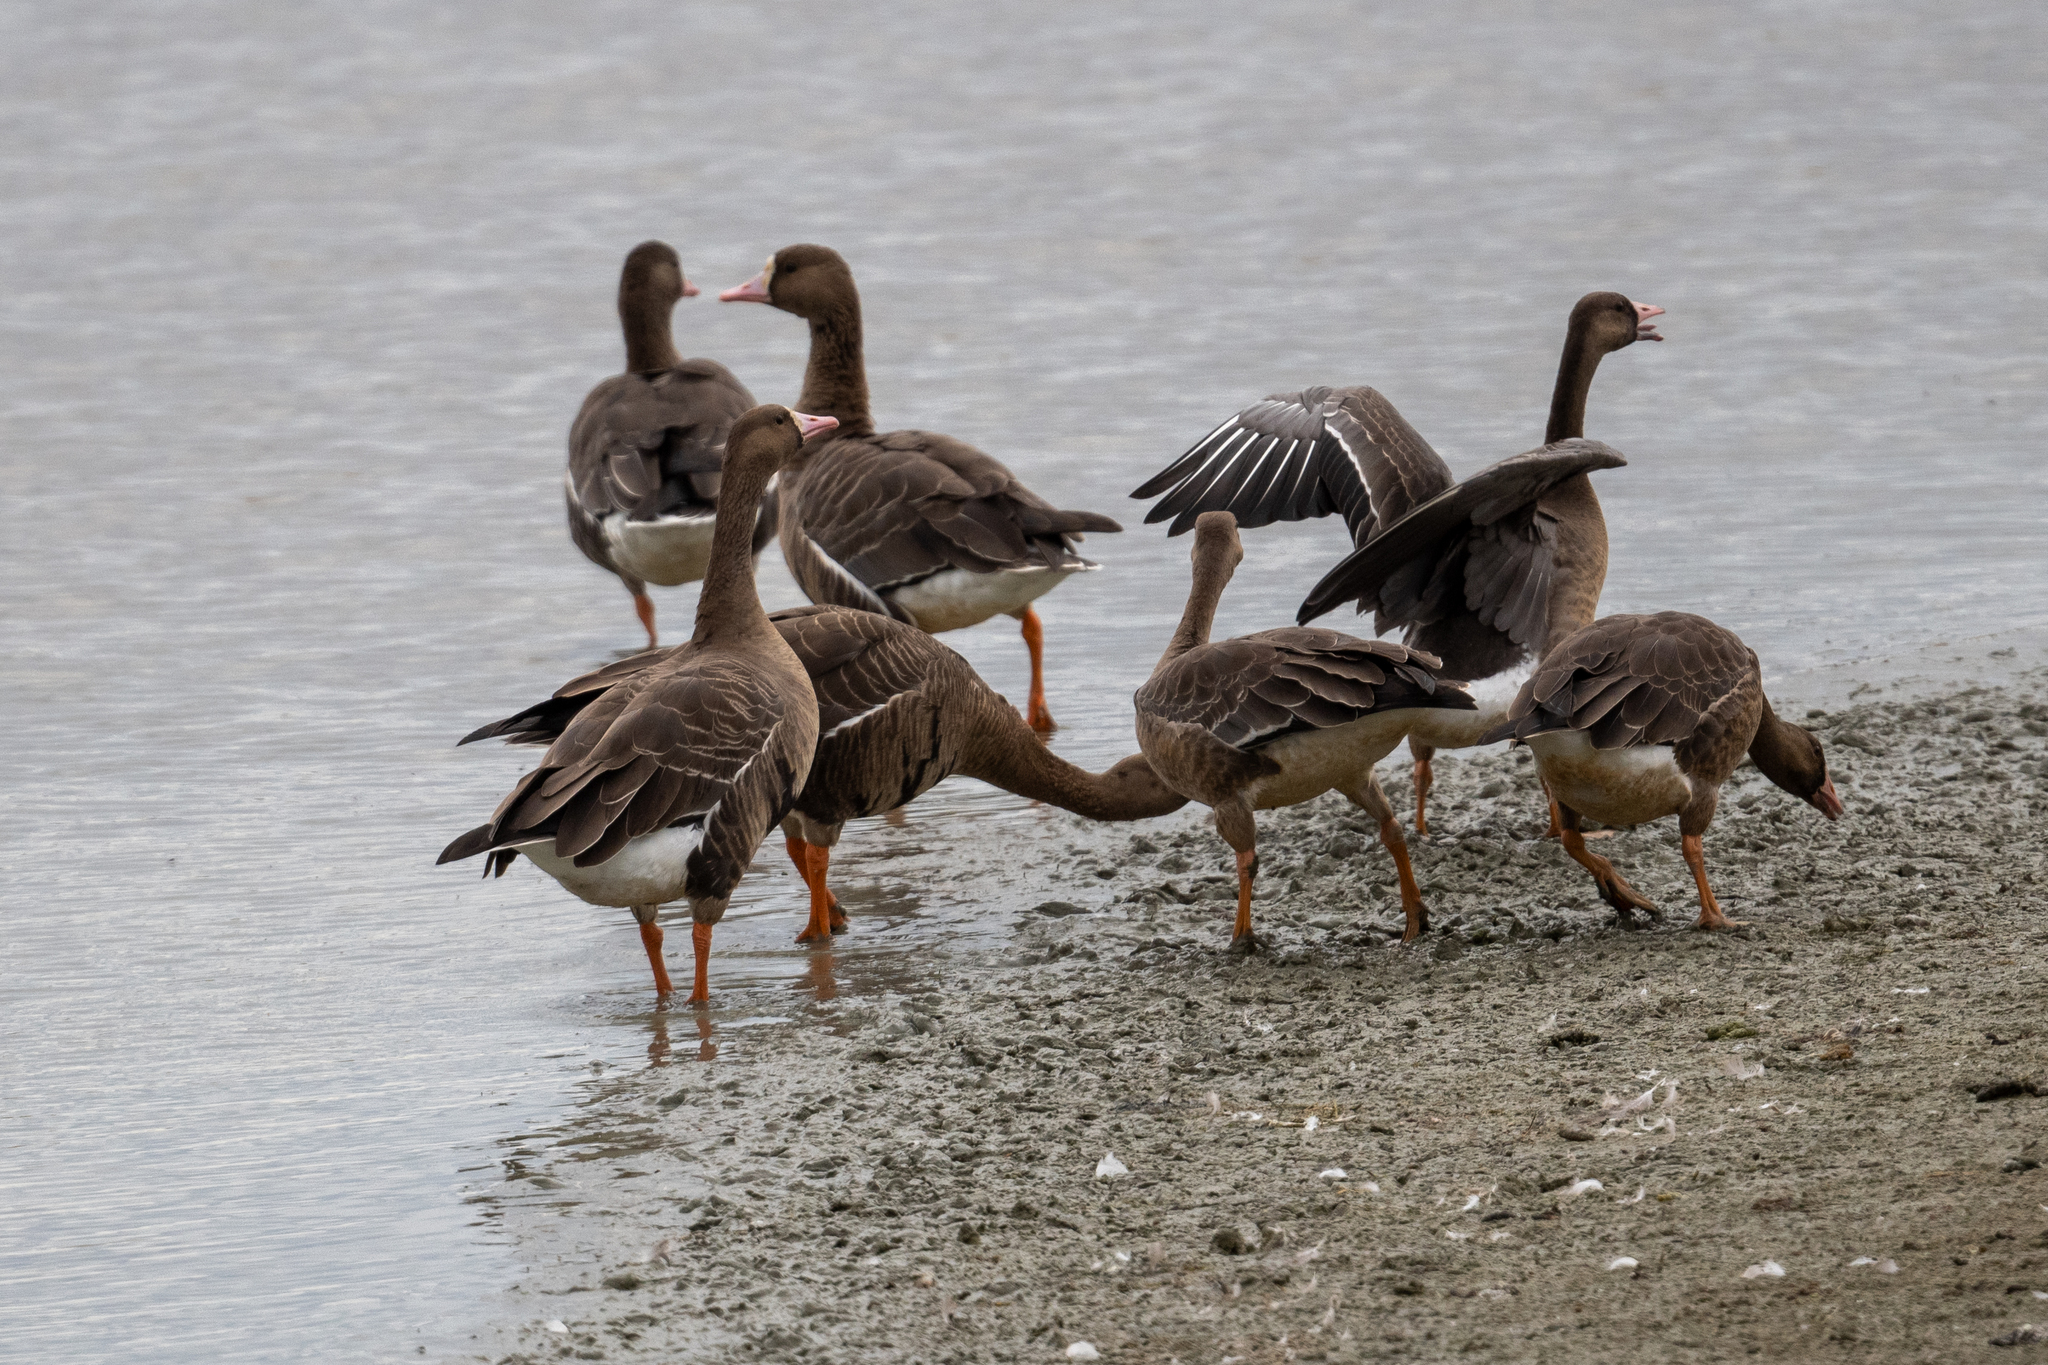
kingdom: Animalia
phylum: Chordata
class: Aves
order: Anseriformes
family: Anatidae
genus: Anser
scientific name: Anser albifrons
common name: Greater white-fronted goose
